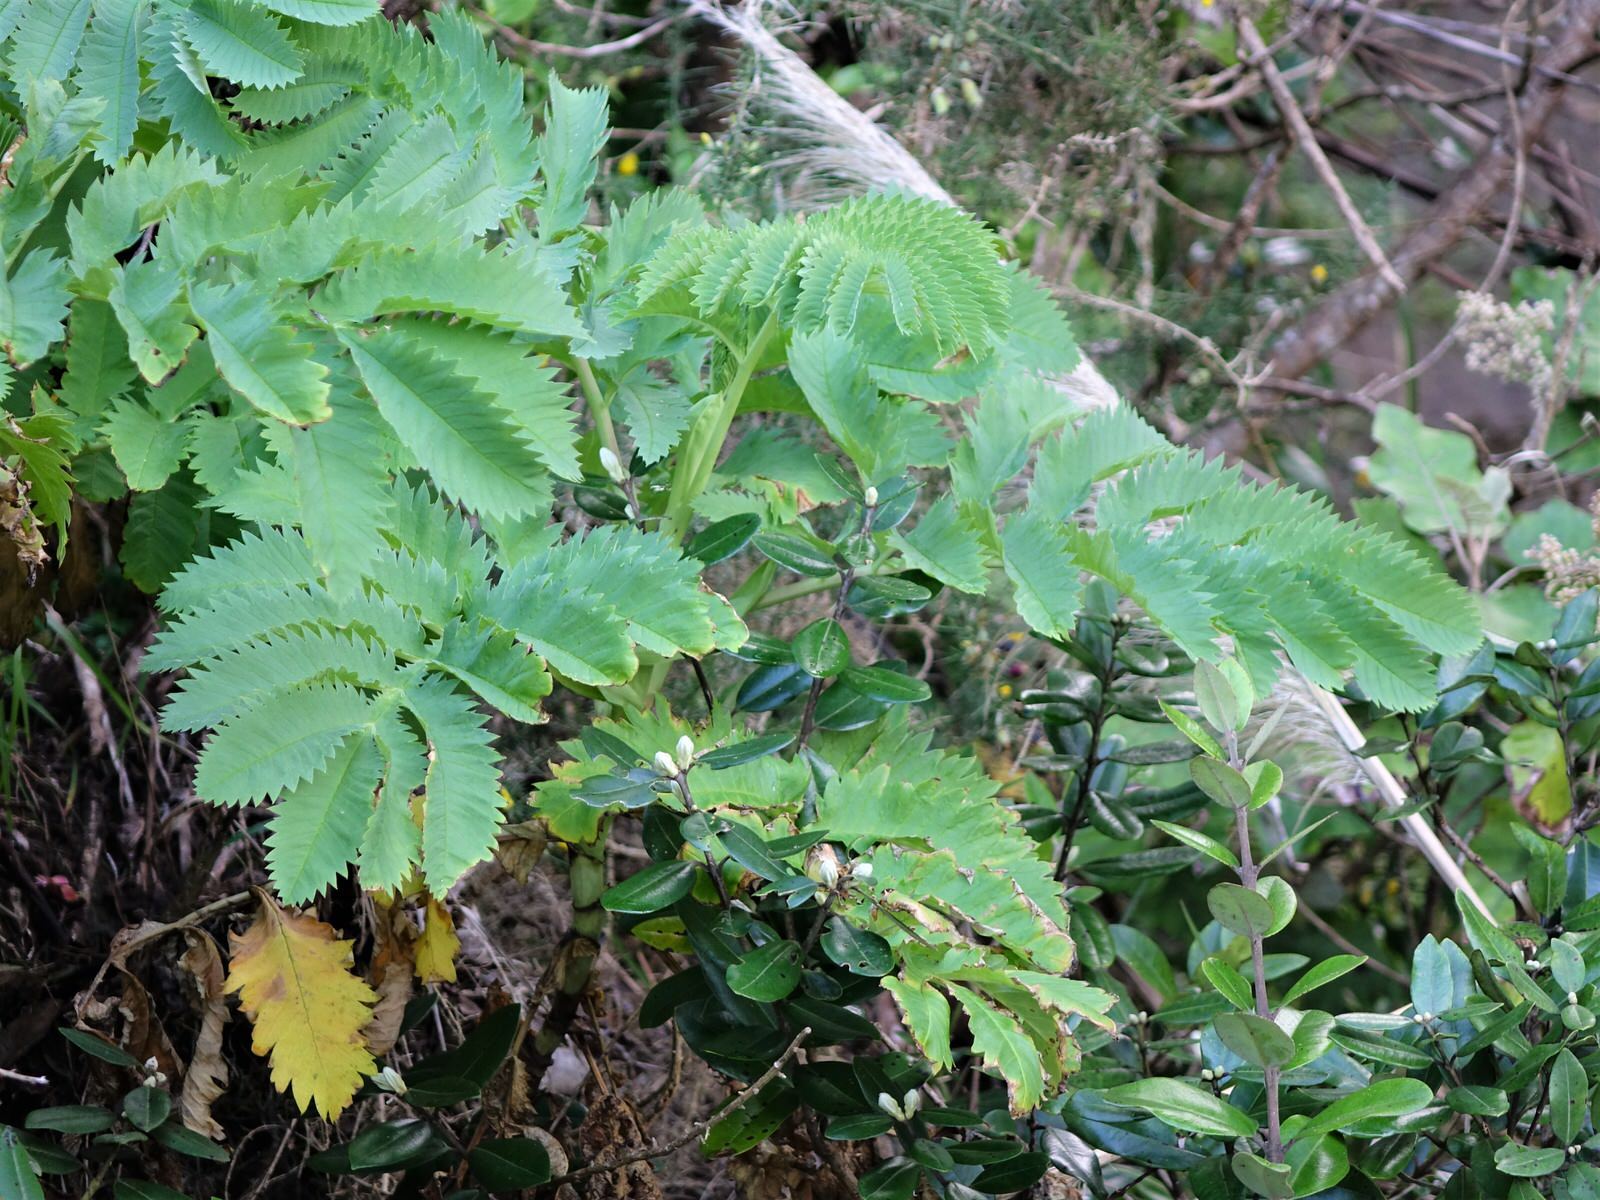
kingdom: Plantae
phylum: Tracheophyta
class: Magnoliopsida
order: Geraniales
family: Melianthaceae
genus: Melianthus
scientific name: Melianthus major
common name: Honey-flower
